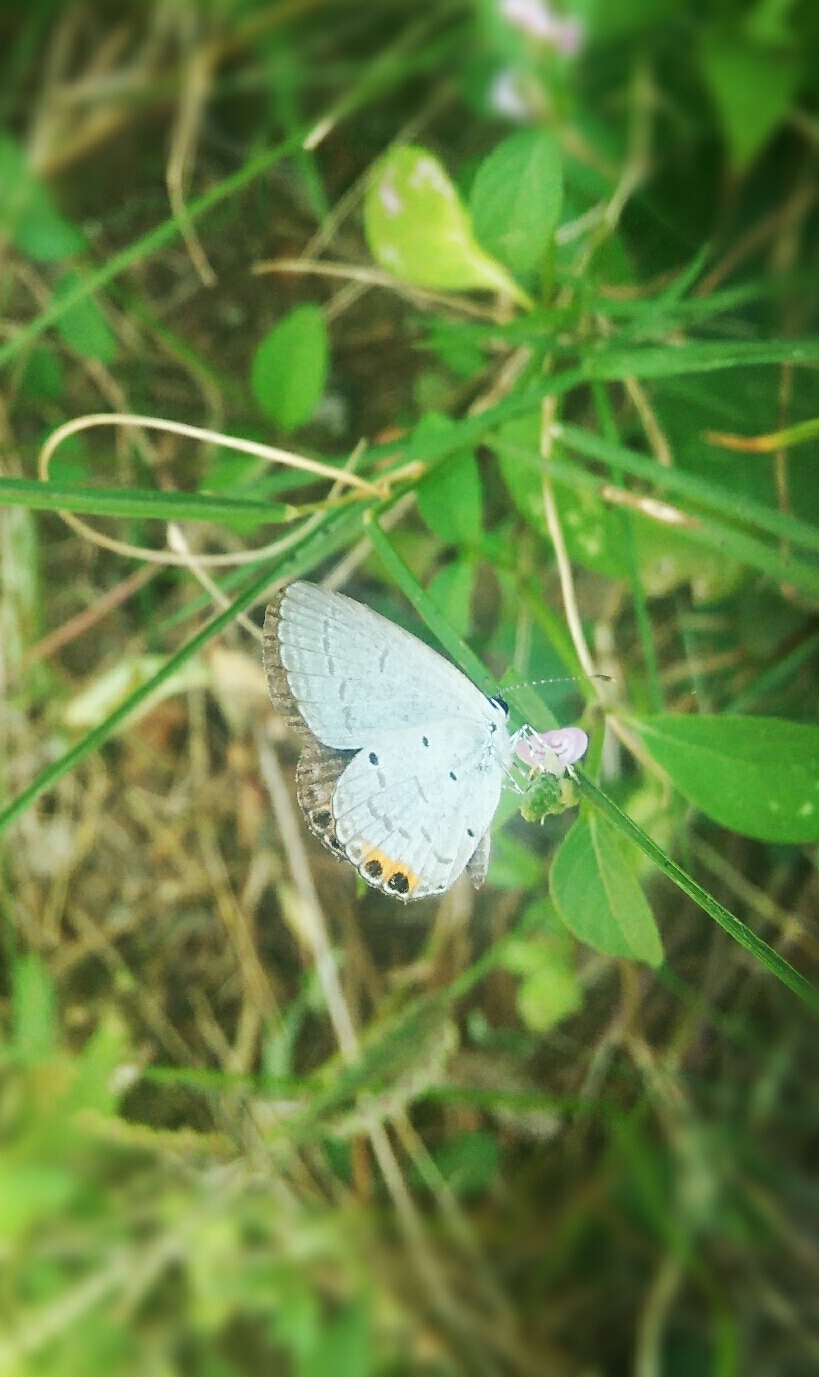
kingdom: Animalia
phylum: Arthropoda
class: Insecta
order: Lepidoptera
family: Lycaenidae
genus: Everes
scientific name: Everes lacturnus
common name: Orange-tipped pea-blue
